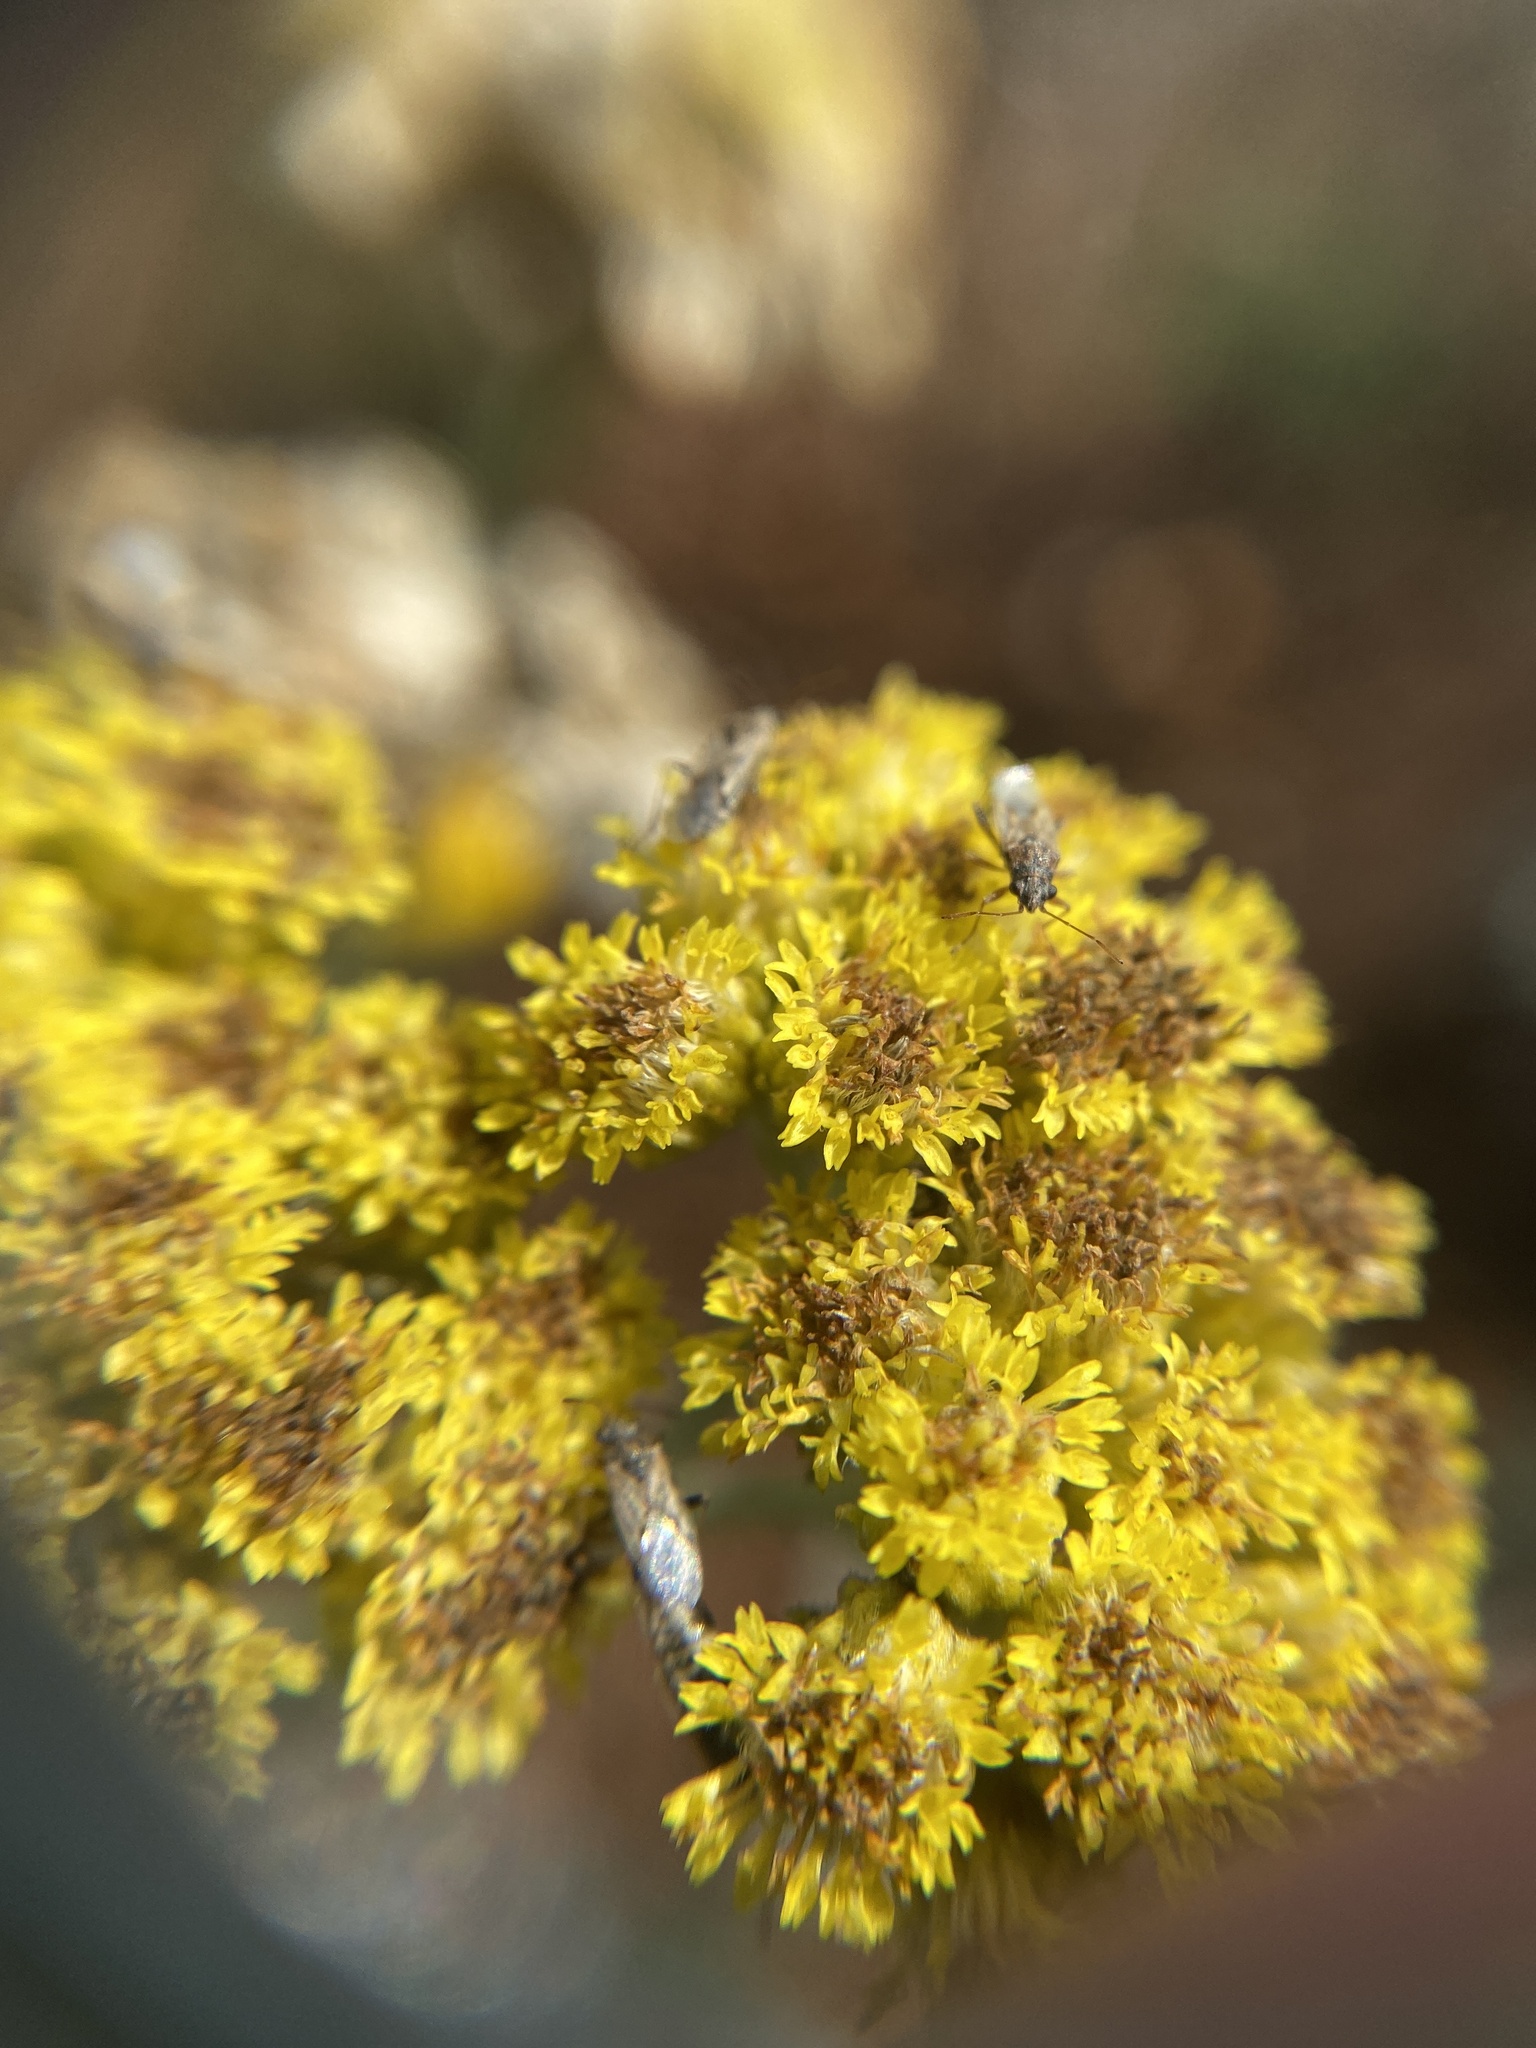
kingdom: Plantae
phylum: Tracheophyta
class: Magnoliopsida
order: Asterales
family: Asteraceae
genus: Helichrysum
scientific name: Helichrysum arenarium
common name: Strawflower
